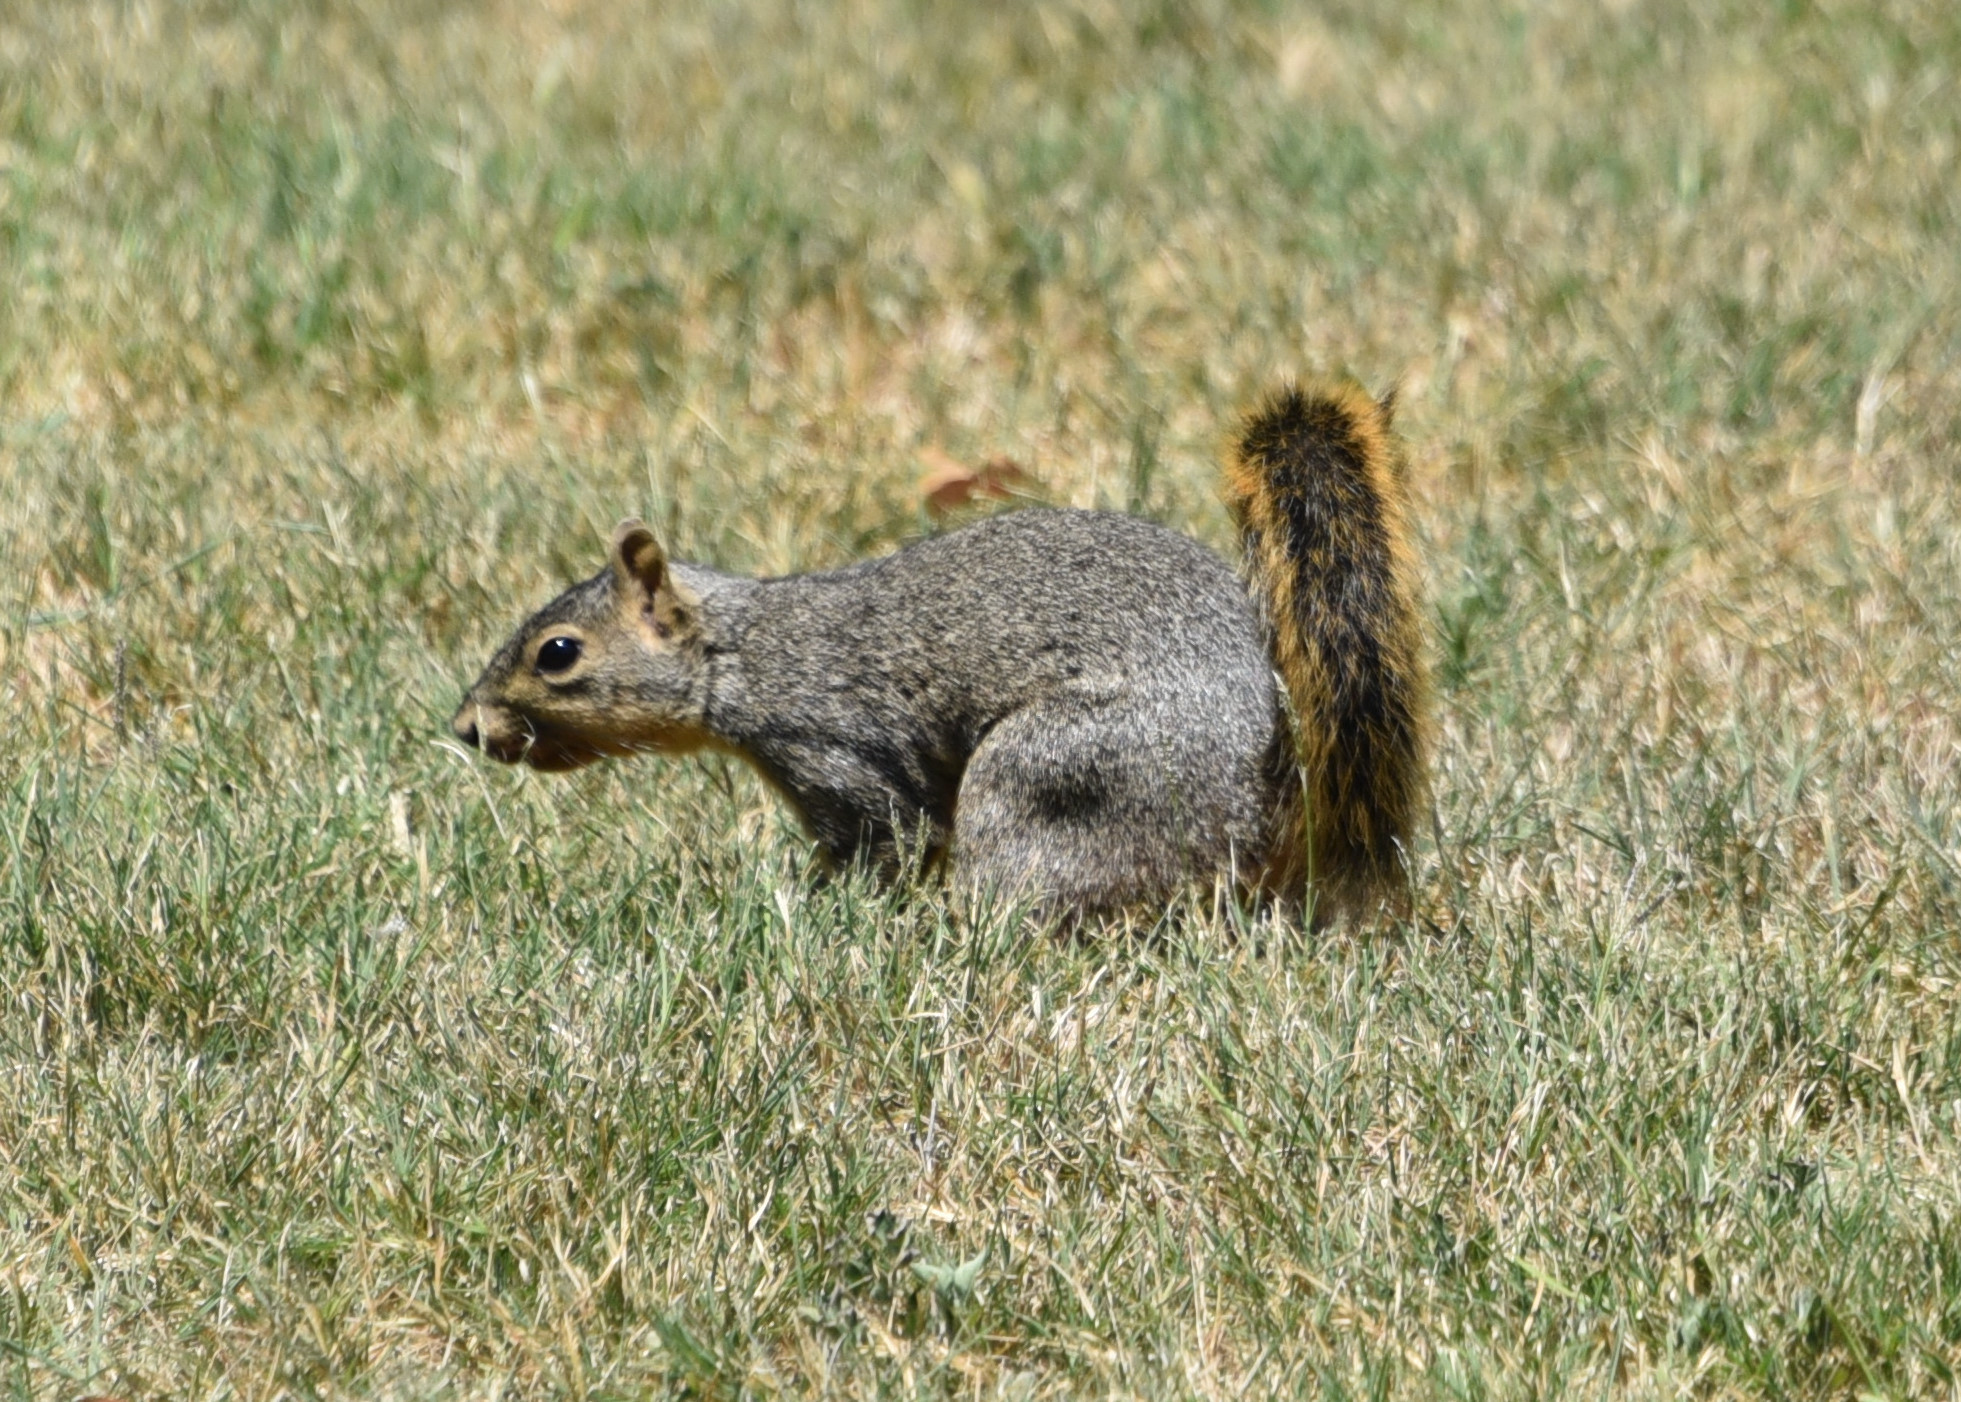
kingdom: Animalia
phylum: Chordata
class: Mammalia
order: Rodentia
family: Sciuridae
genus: Sciurus
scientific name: Sciurus niger
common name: Fox squirrel
